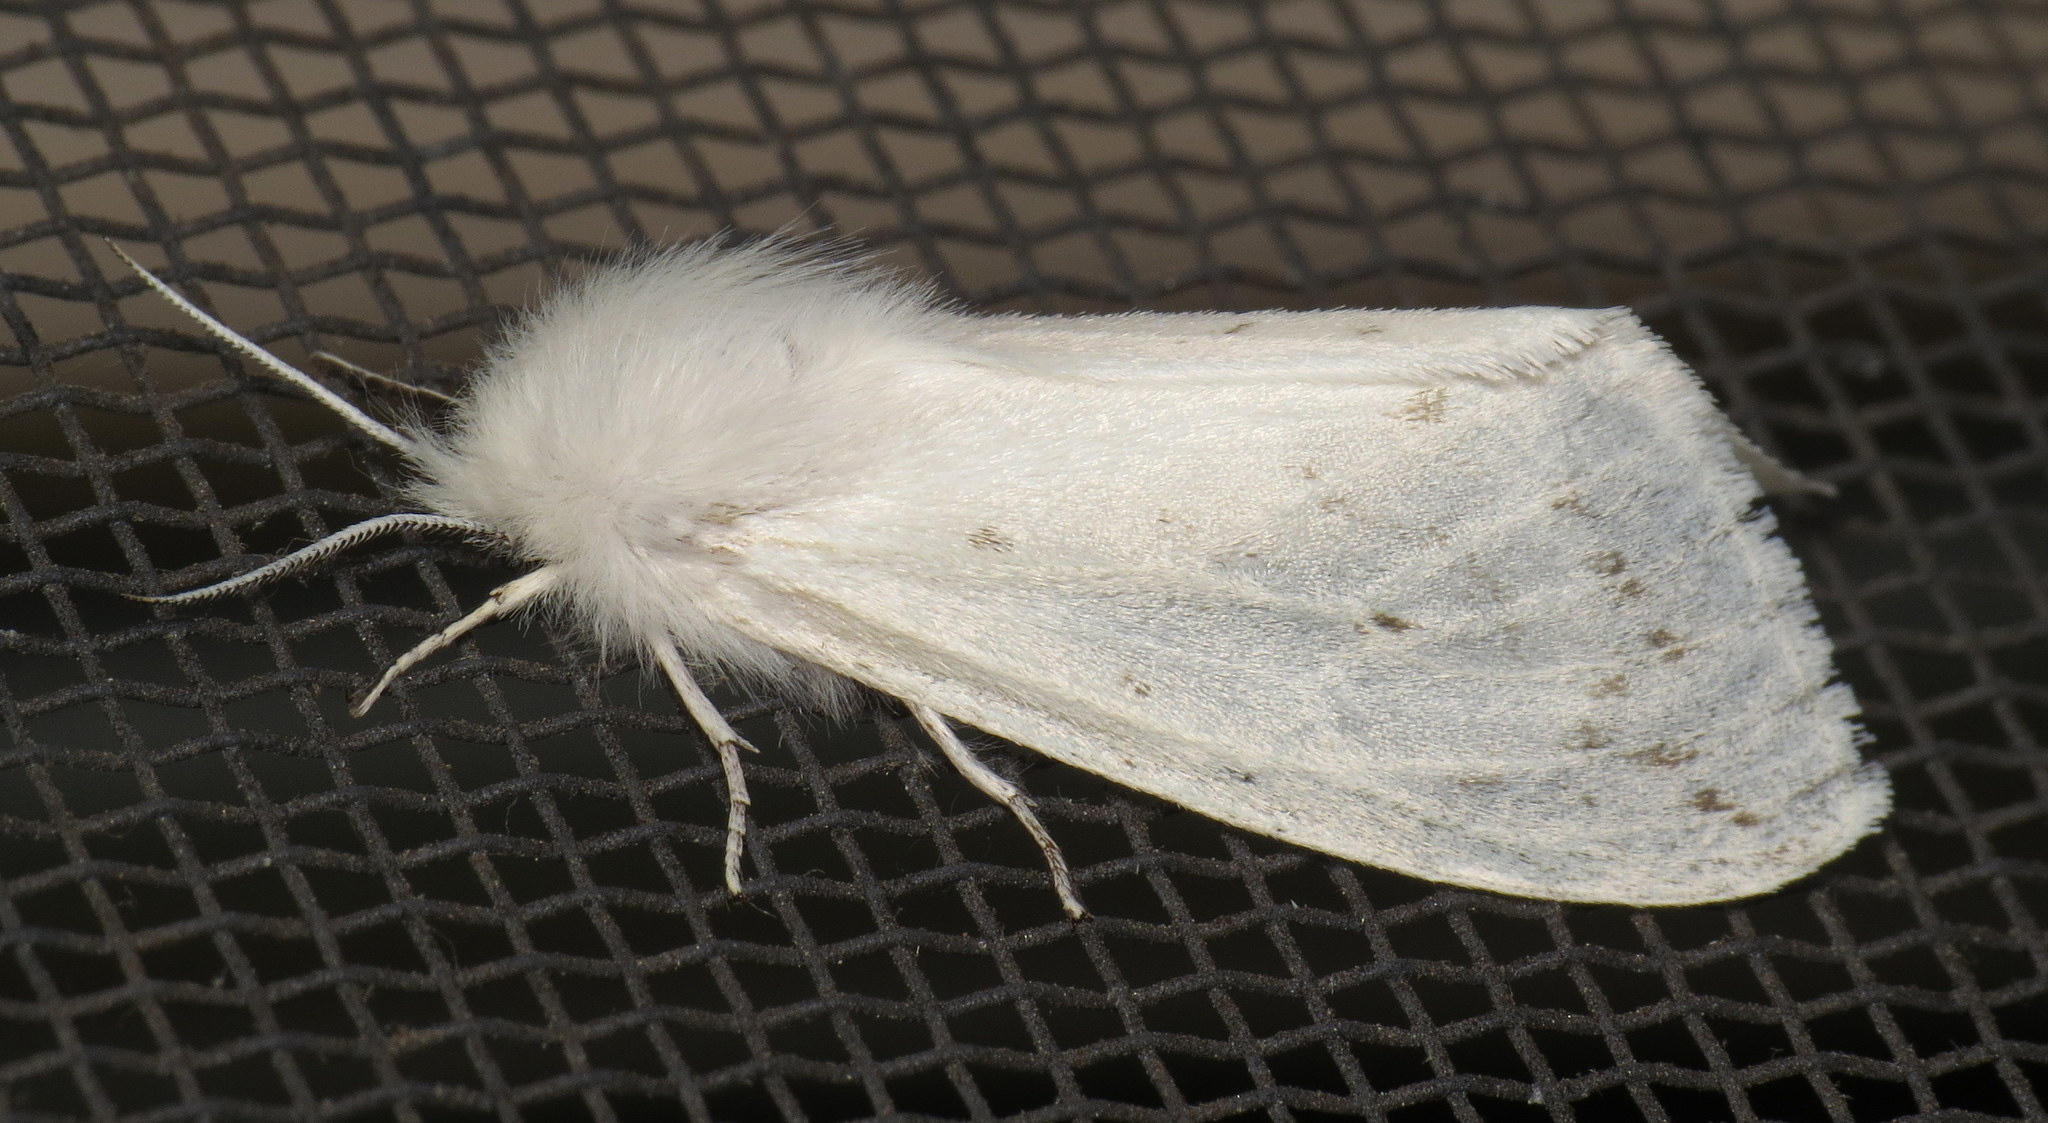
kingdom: Animalia
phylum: Arthropoda
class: Insecta
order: Lepidoptera
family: Erebidae
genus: Spilosoma
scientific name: Spilosoma congrua
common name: Agreeable tiger moth
